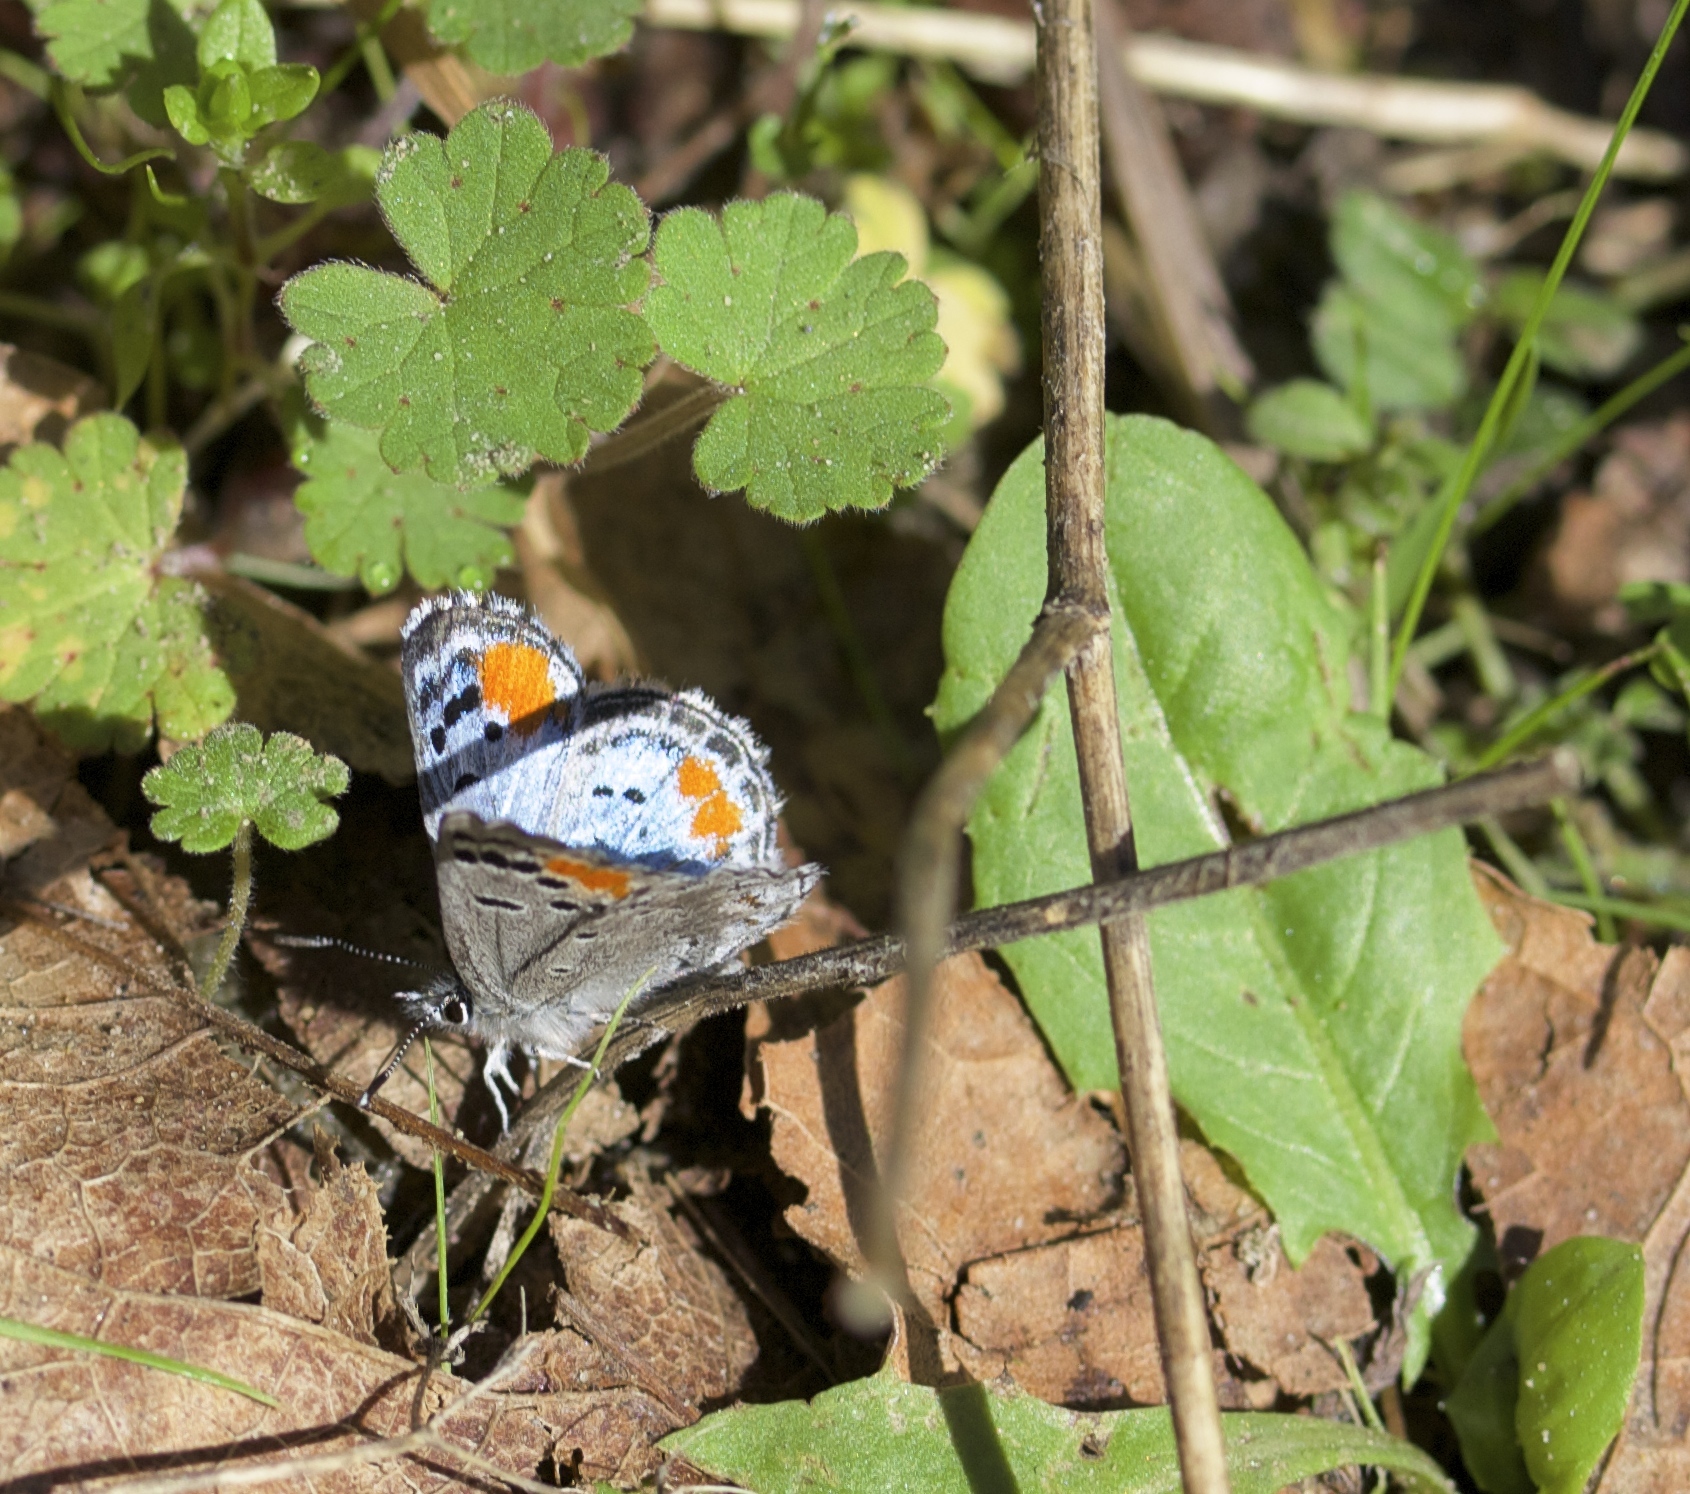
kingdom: Animalia
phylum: Arthropoda
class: Insecta
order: Lepidoptera
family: Lycaenidae
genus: Philotes
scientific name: Philotes sonorensis
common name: Sonoran blue
